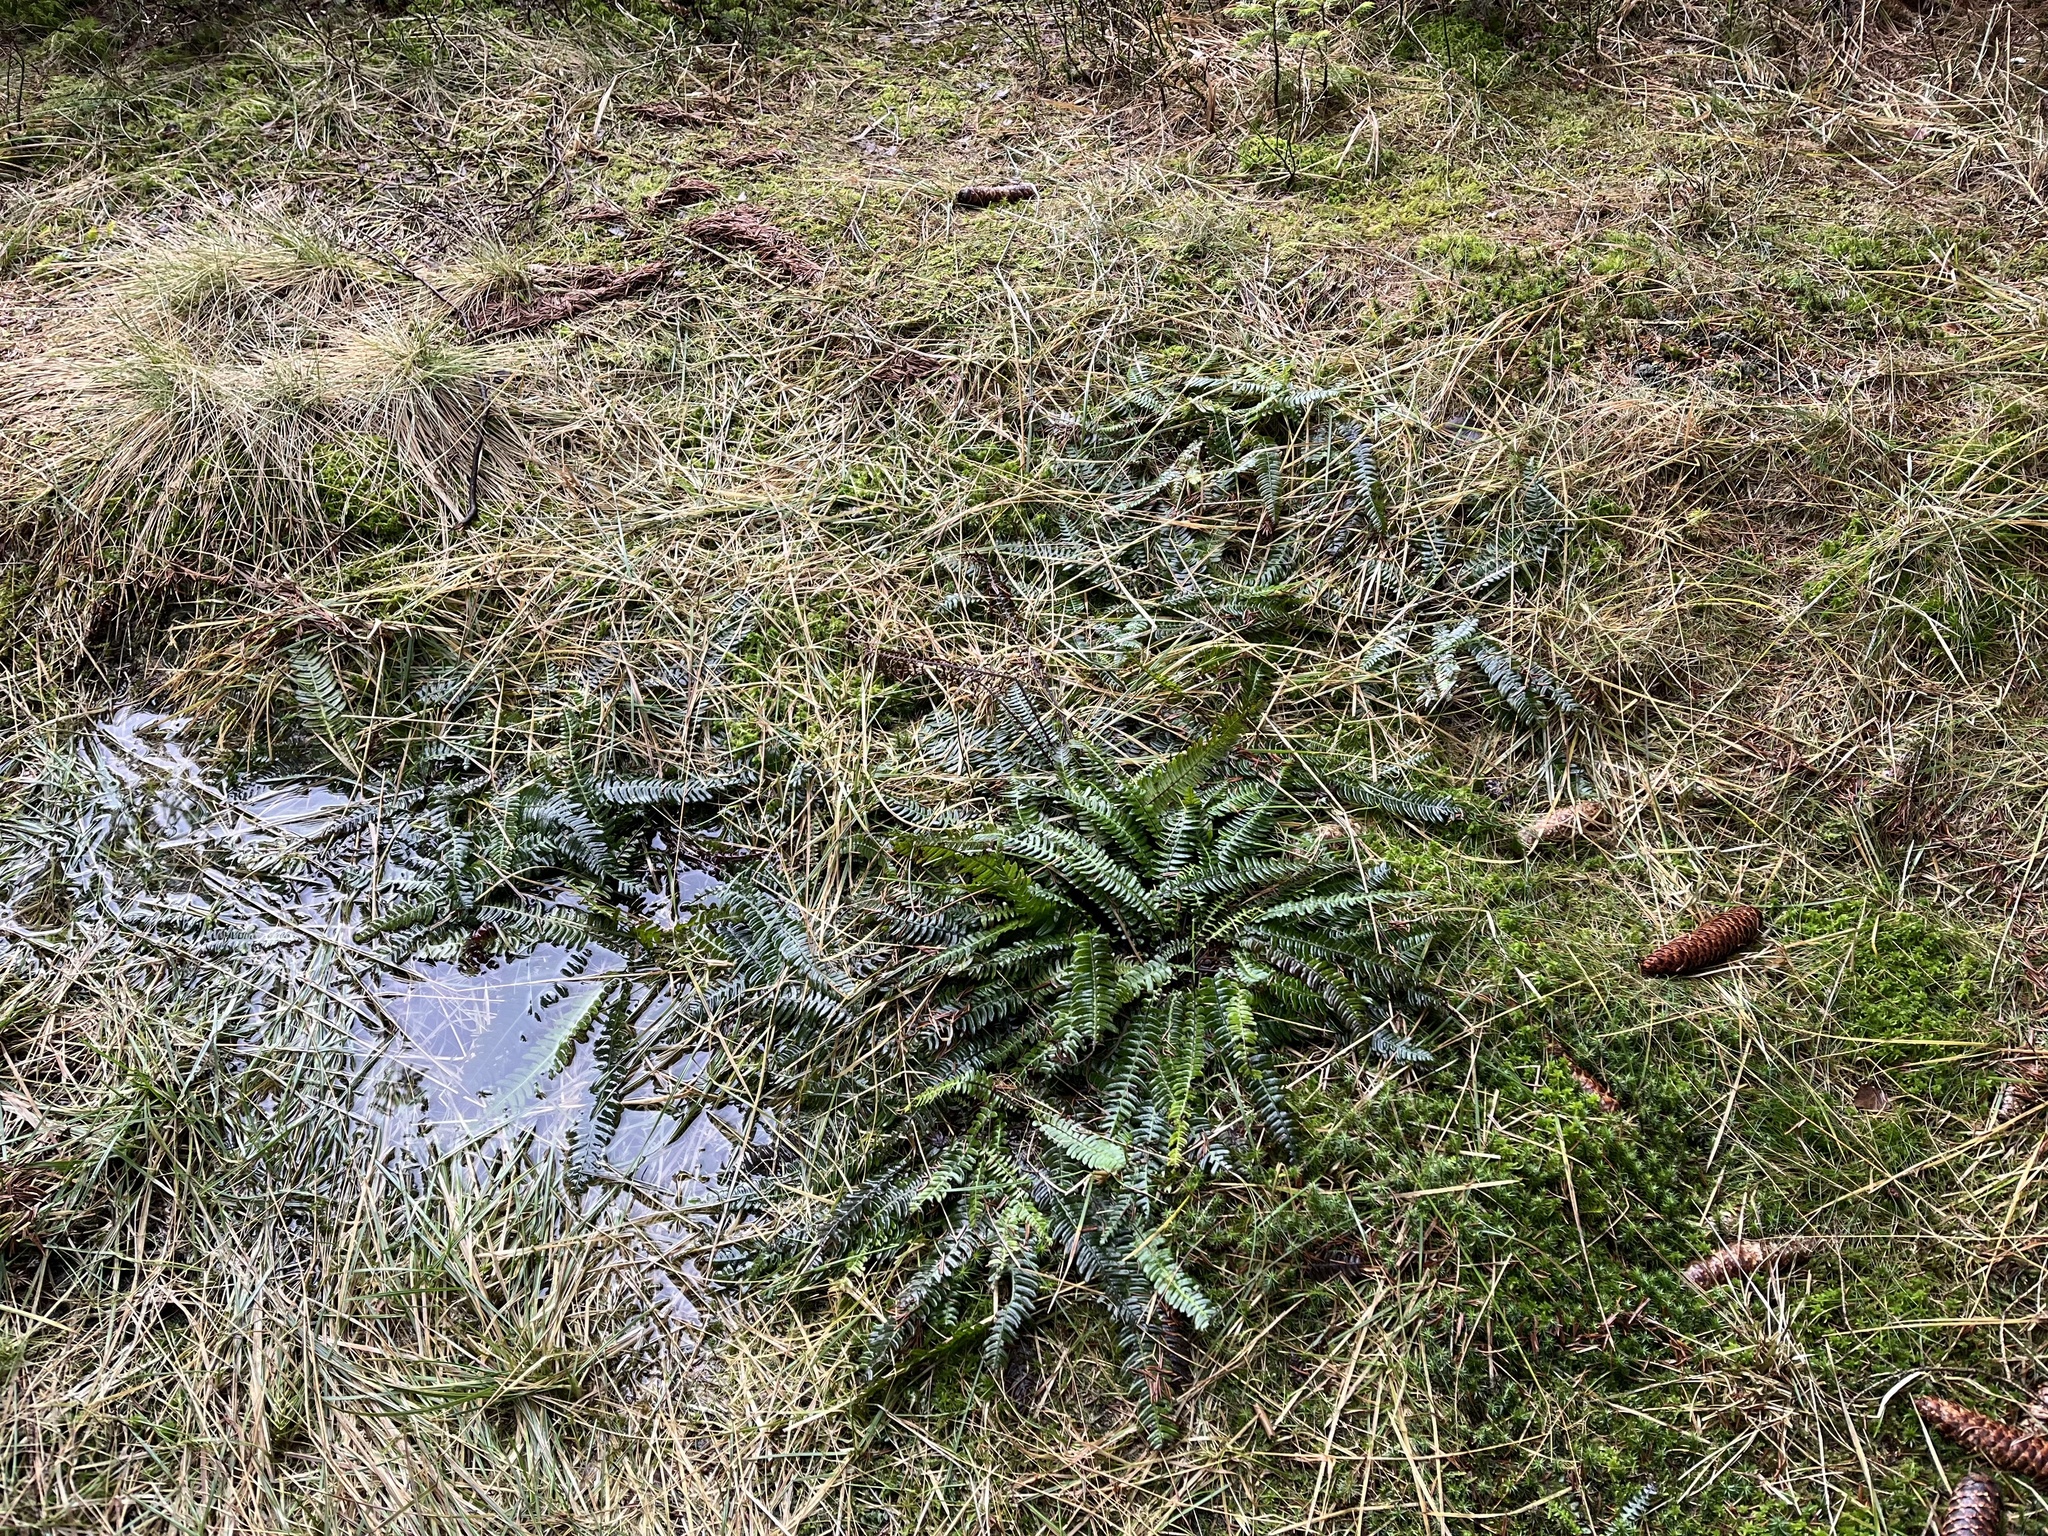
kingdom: Plantae
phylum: Tracheophyta
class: Polypodiopsida
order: Polypodiales
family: Blechnaceae
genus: Struthiopteris
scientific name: Struthiopteris spicant
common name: Deer fern
